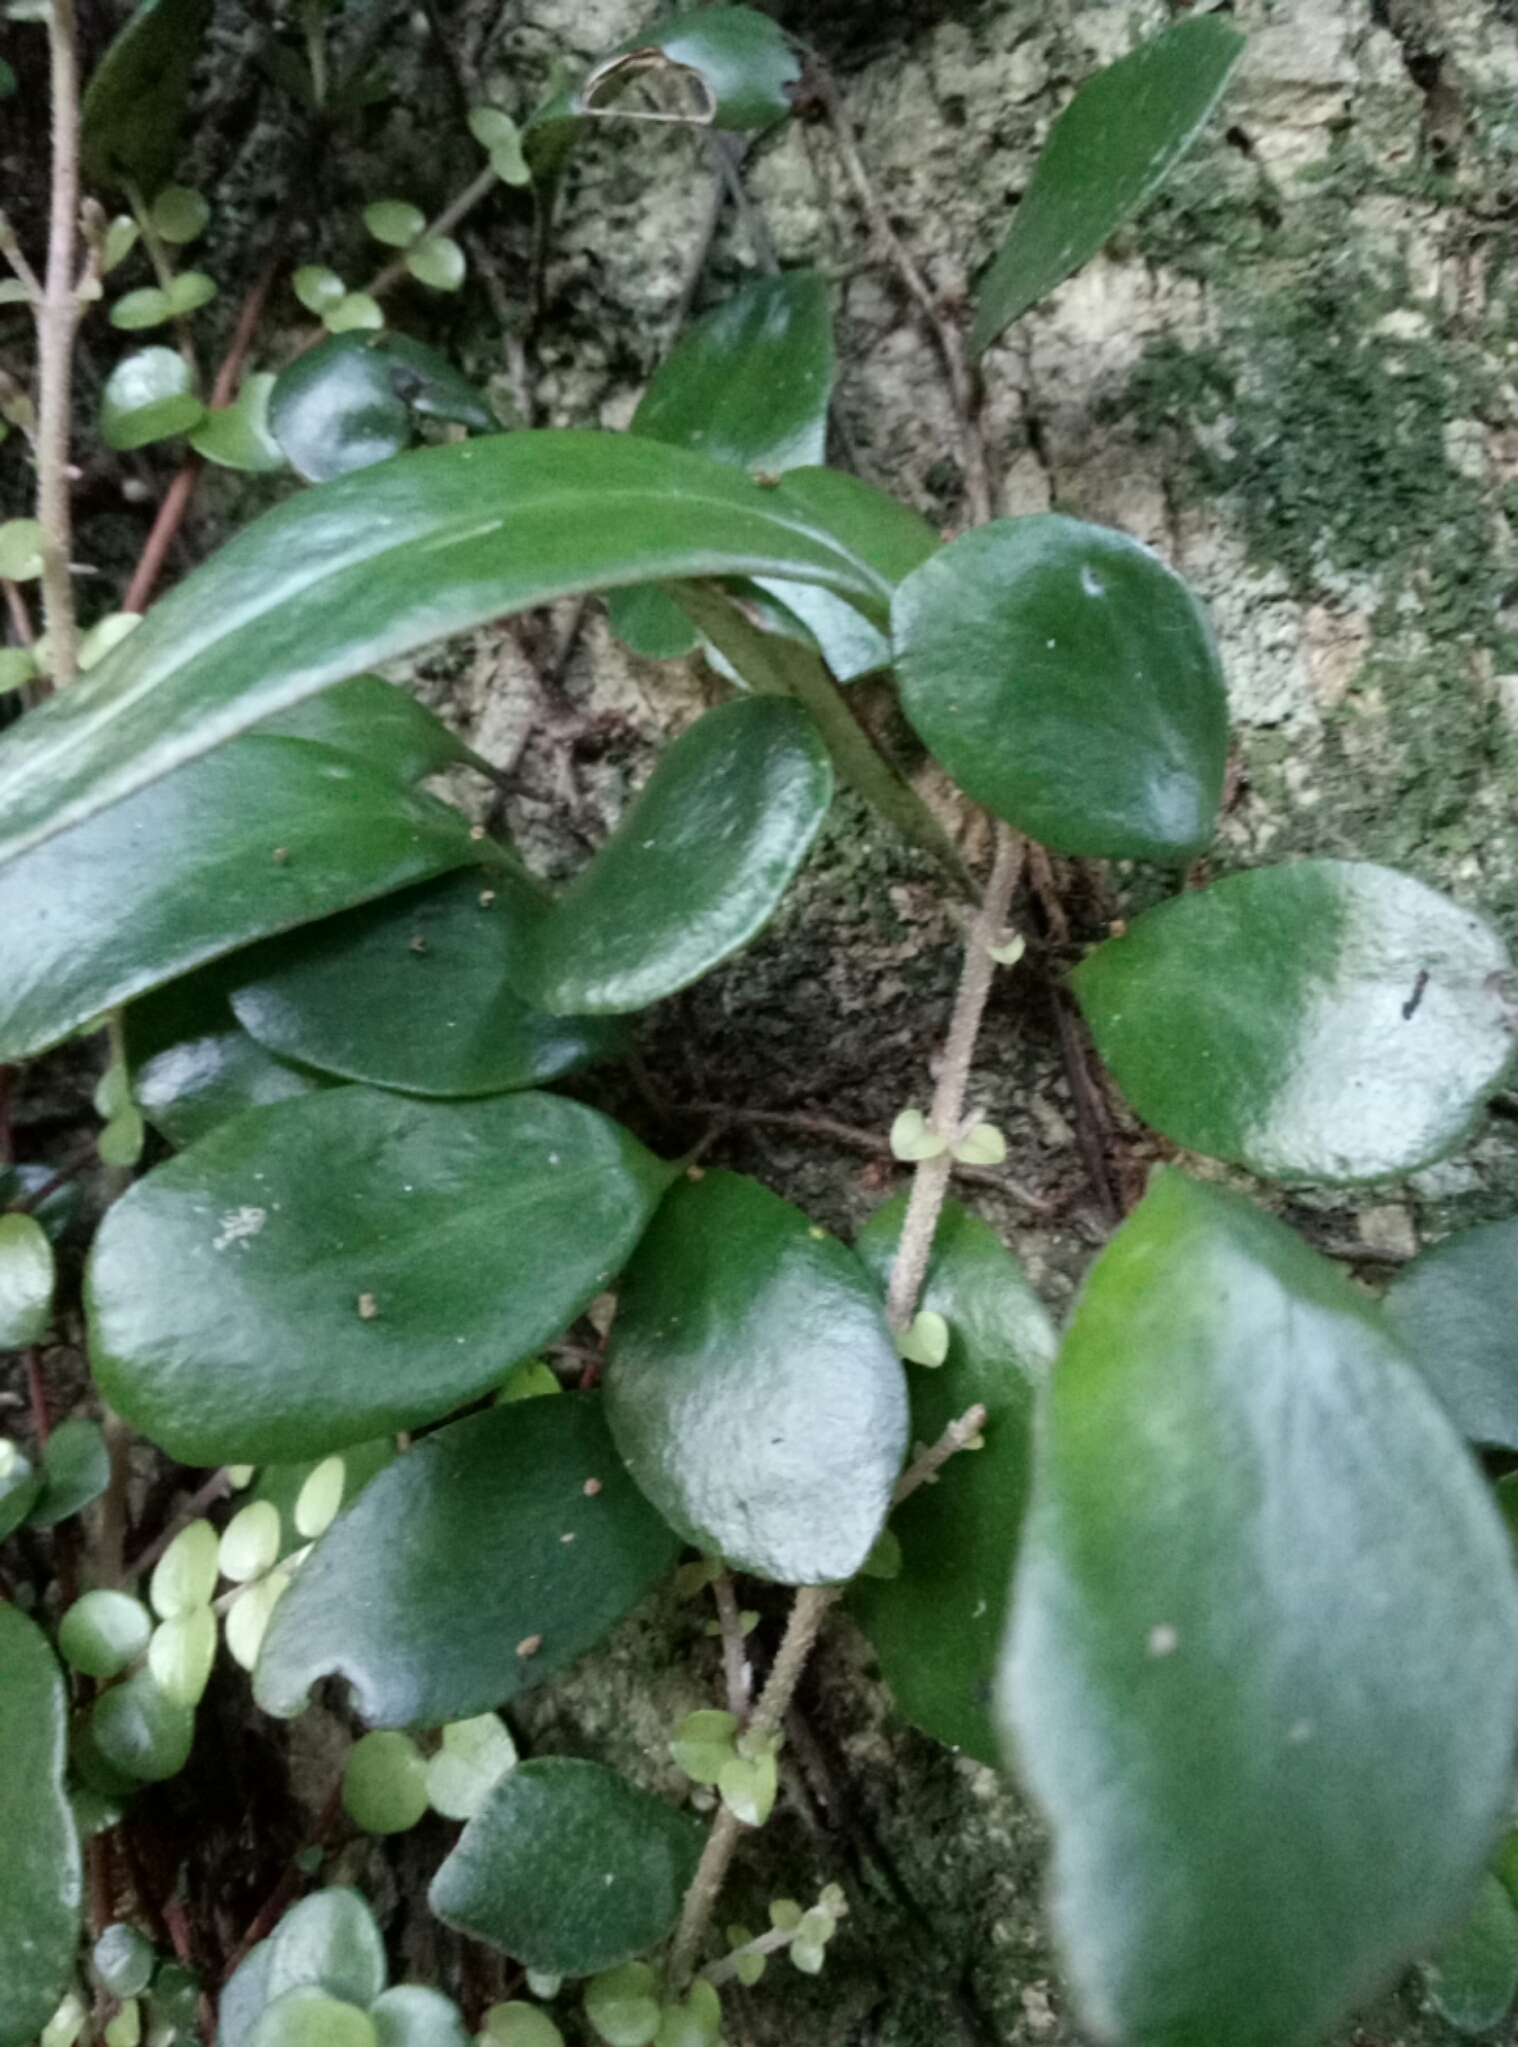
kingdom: Plantae
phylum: Tracheophyta
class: Polypodiopsida
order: Polypodiales
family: Polypodiaceae
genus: Pyrrosia
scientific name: Pyrrosia eleagnifolia
